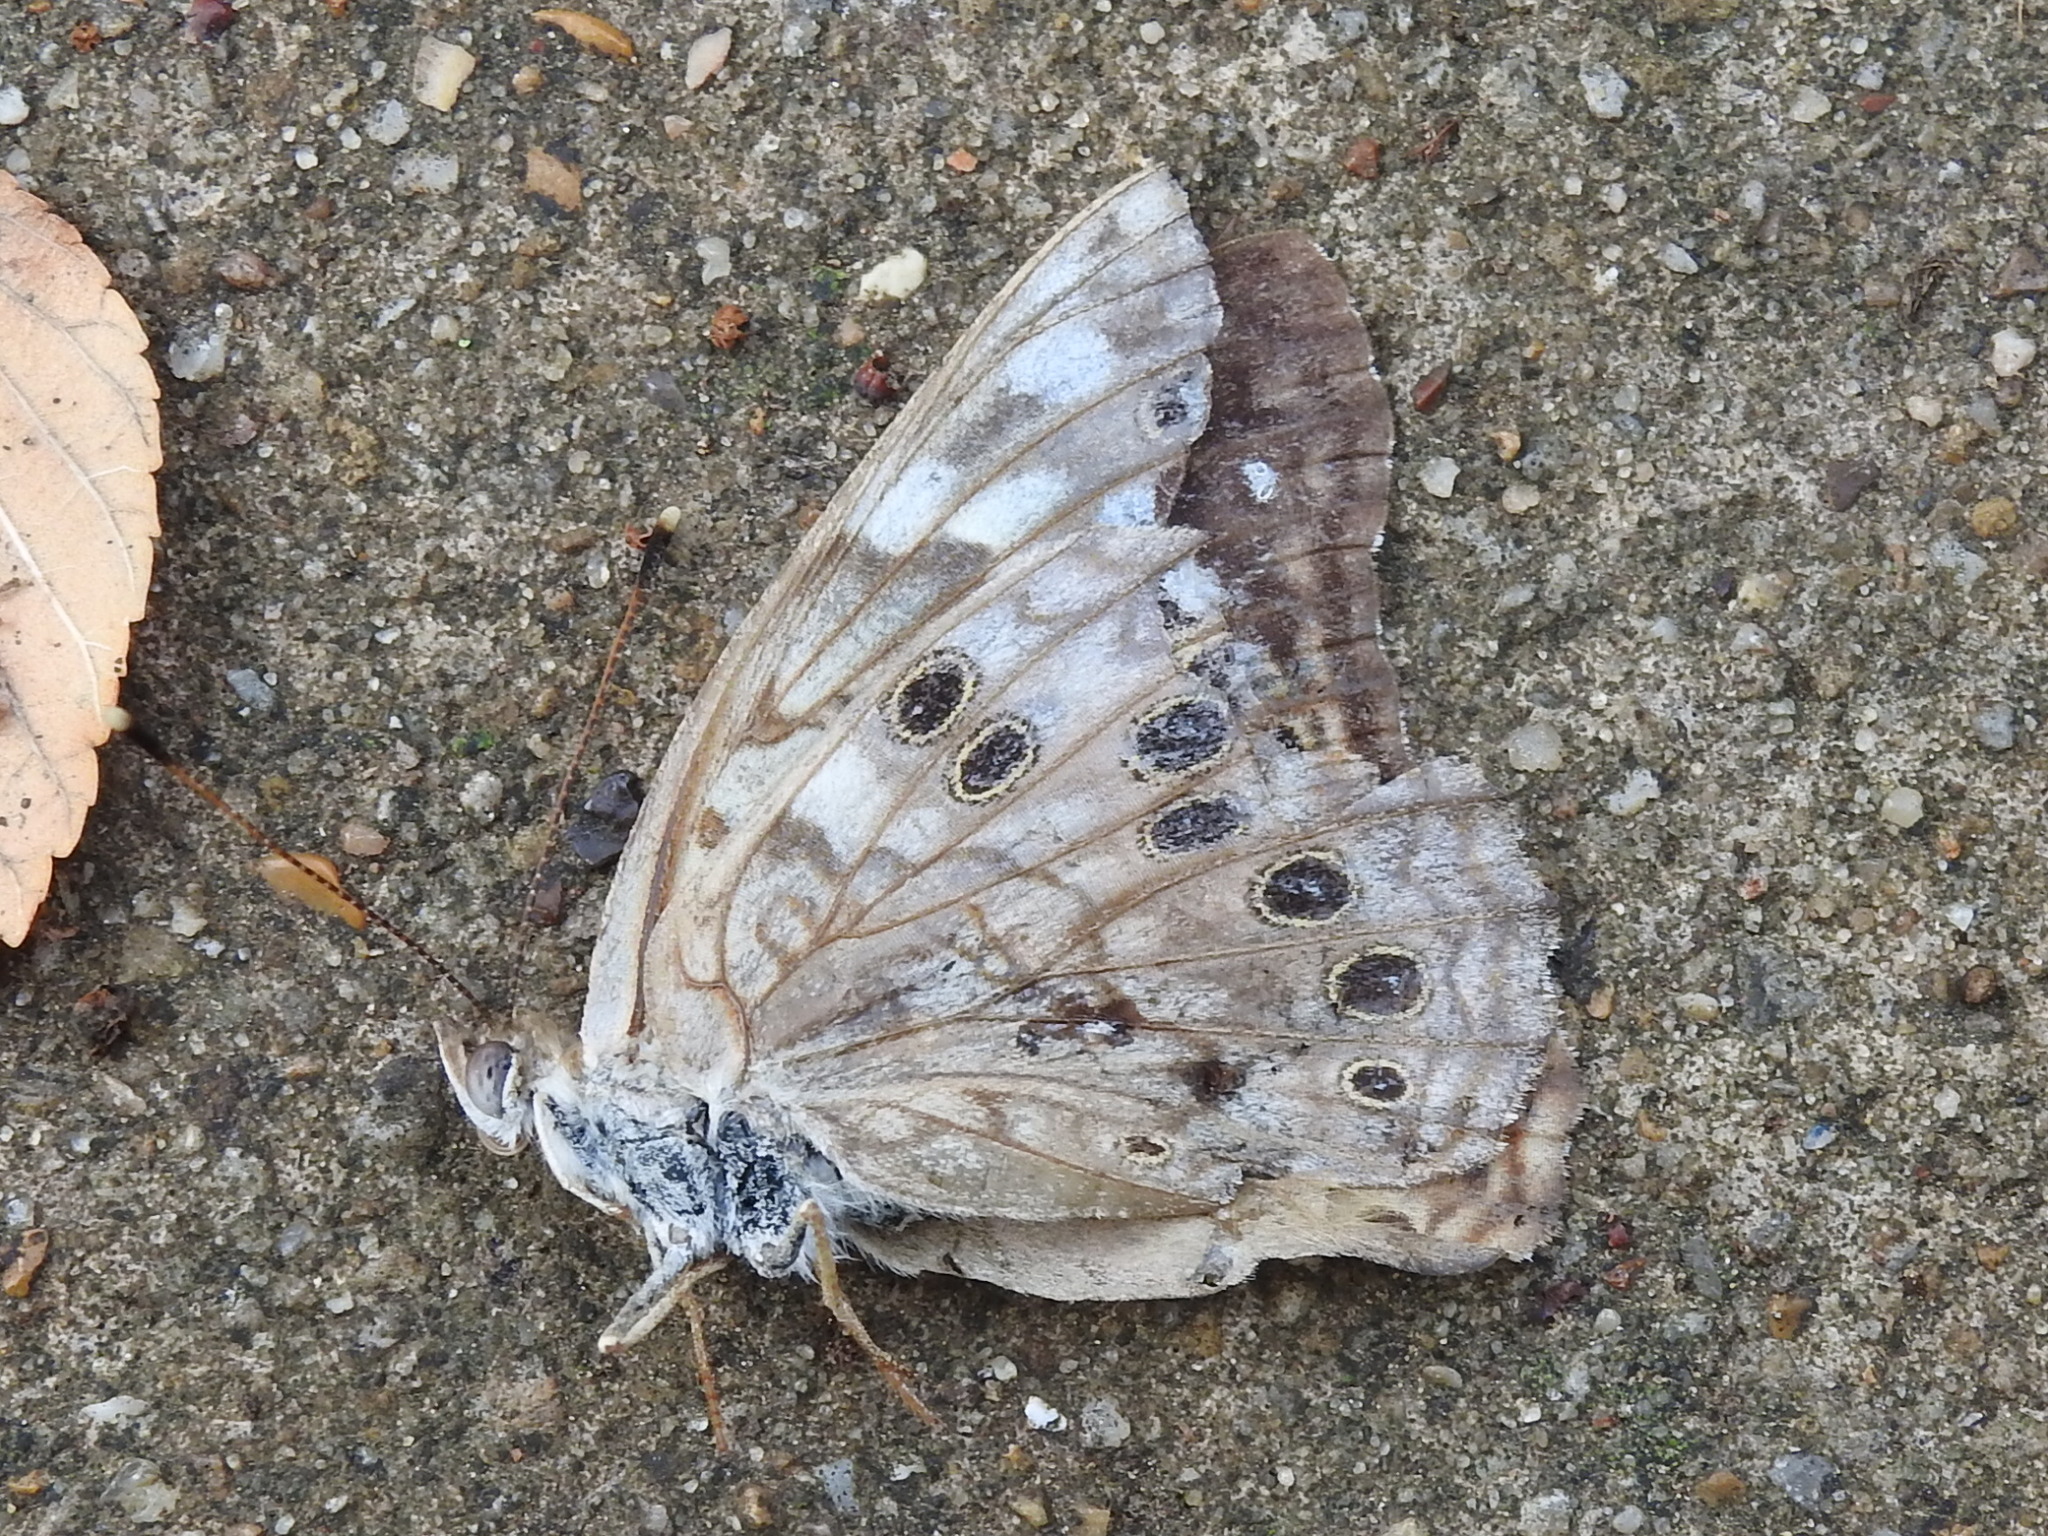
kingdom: Animalia
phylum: Arthropoda
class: Insecta
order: Lepidoptera
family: Nymphalidae
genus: Asterocampa
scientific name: Asterocampa celtis
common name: Hackberry emperor
